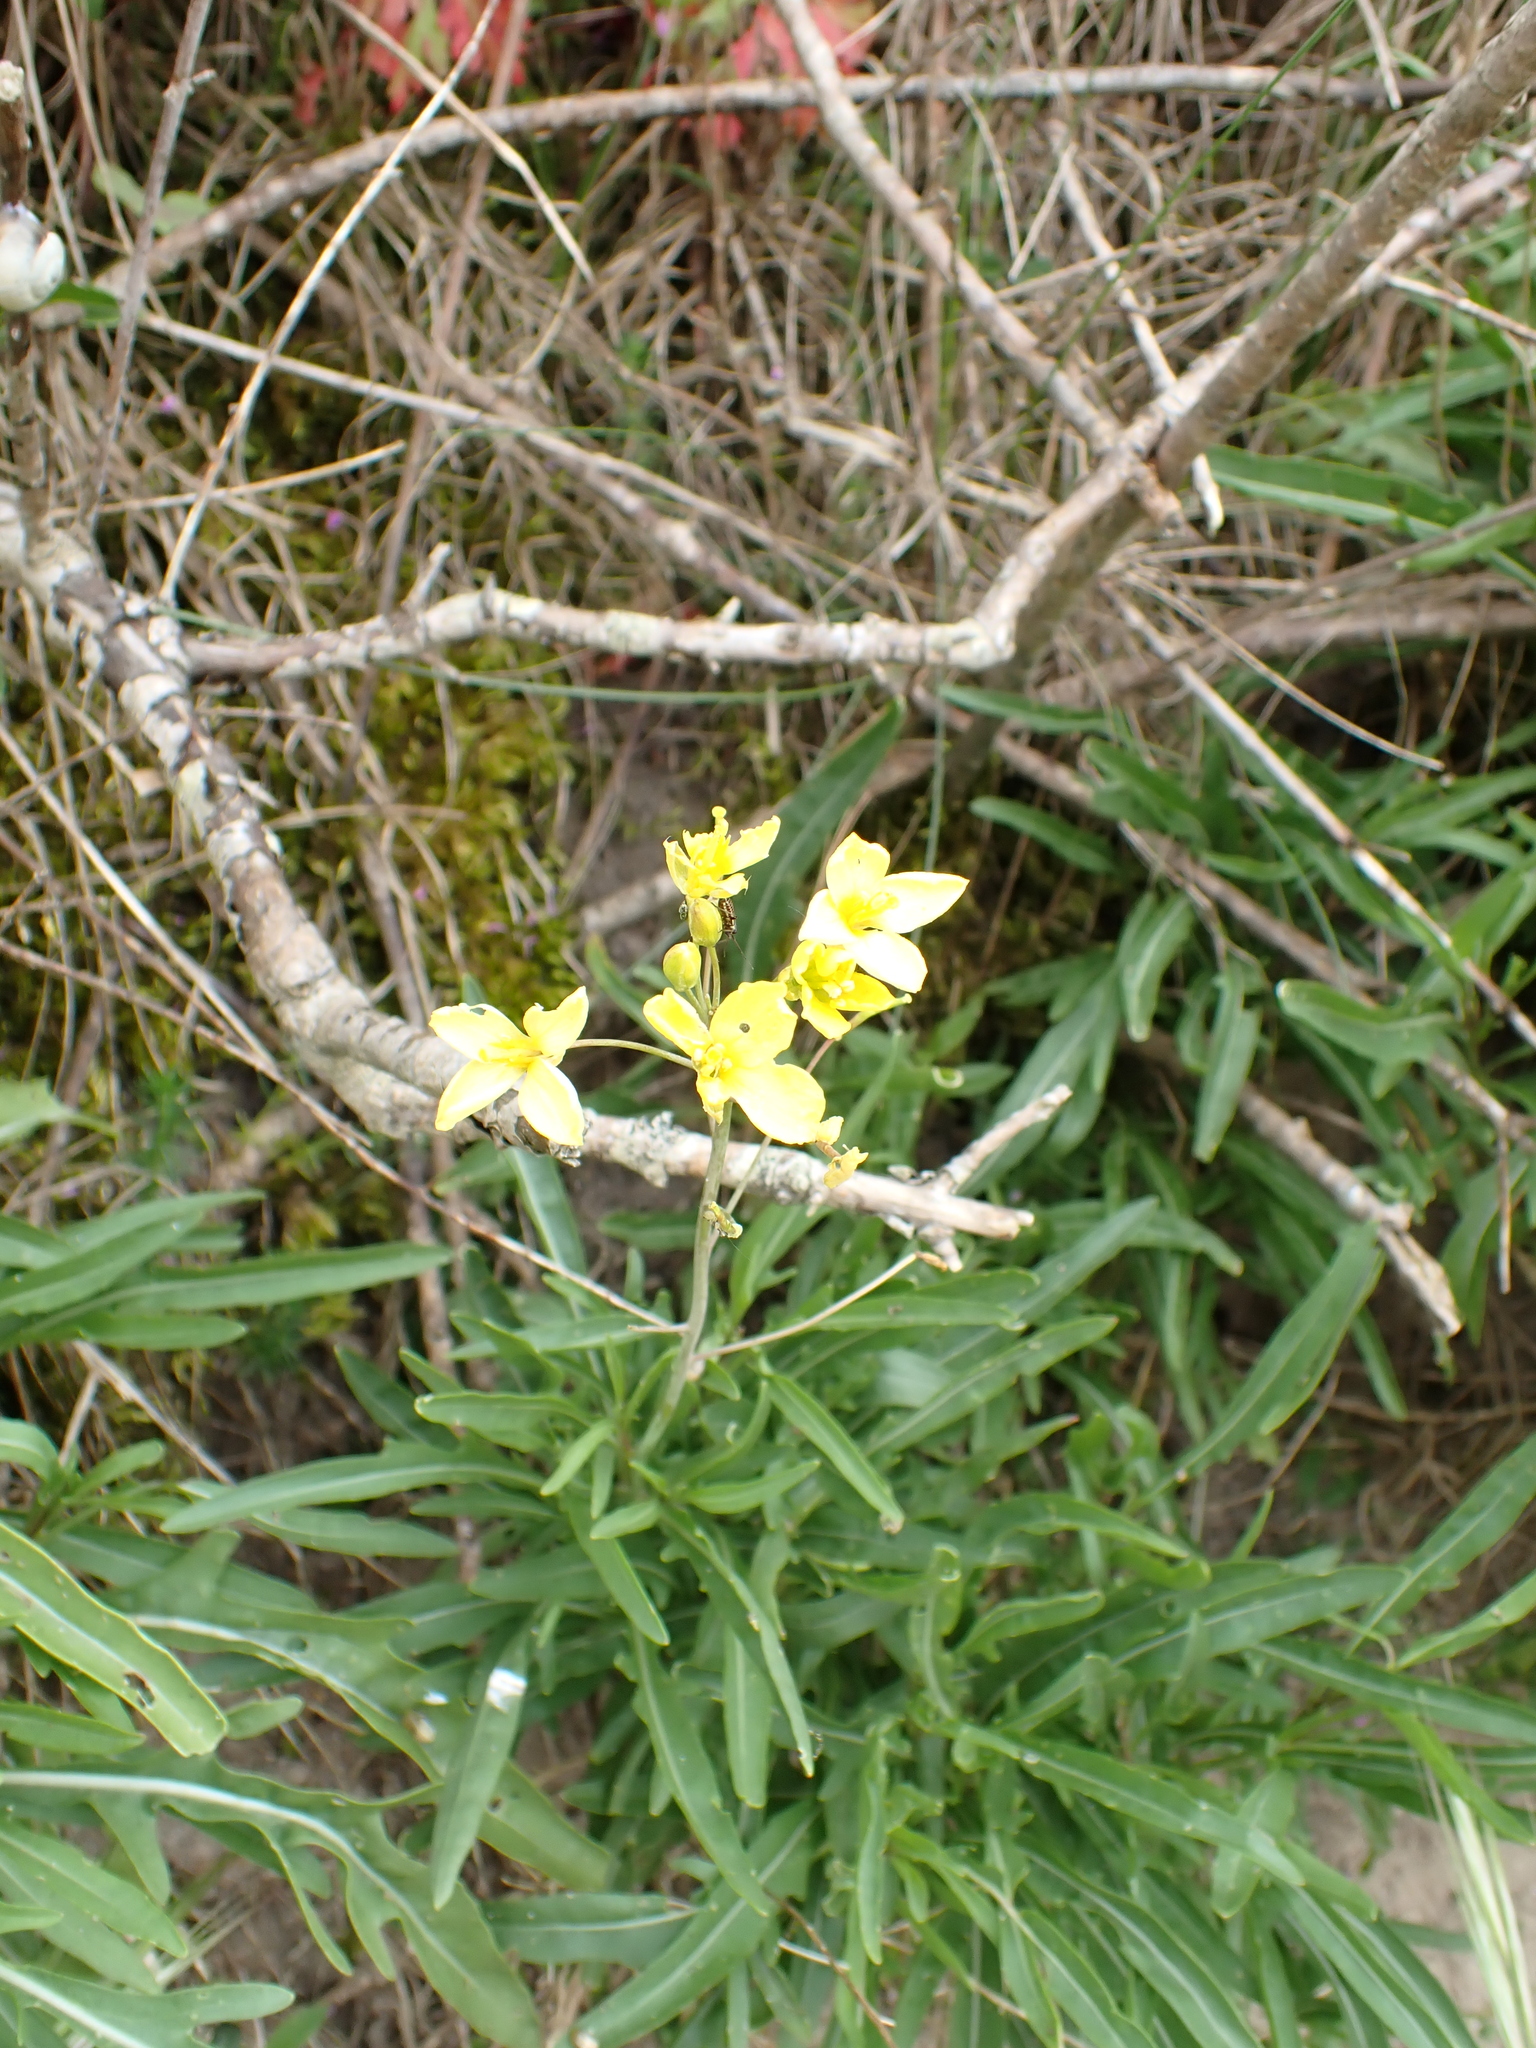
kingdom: Plantae
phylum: Tracheophyta
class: Magnoliopsida
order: Brassicales
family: Brassicaceae
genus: Diplotaxis
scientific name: Diplotaxis tenuifolia
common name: Perennial wall-rocket
